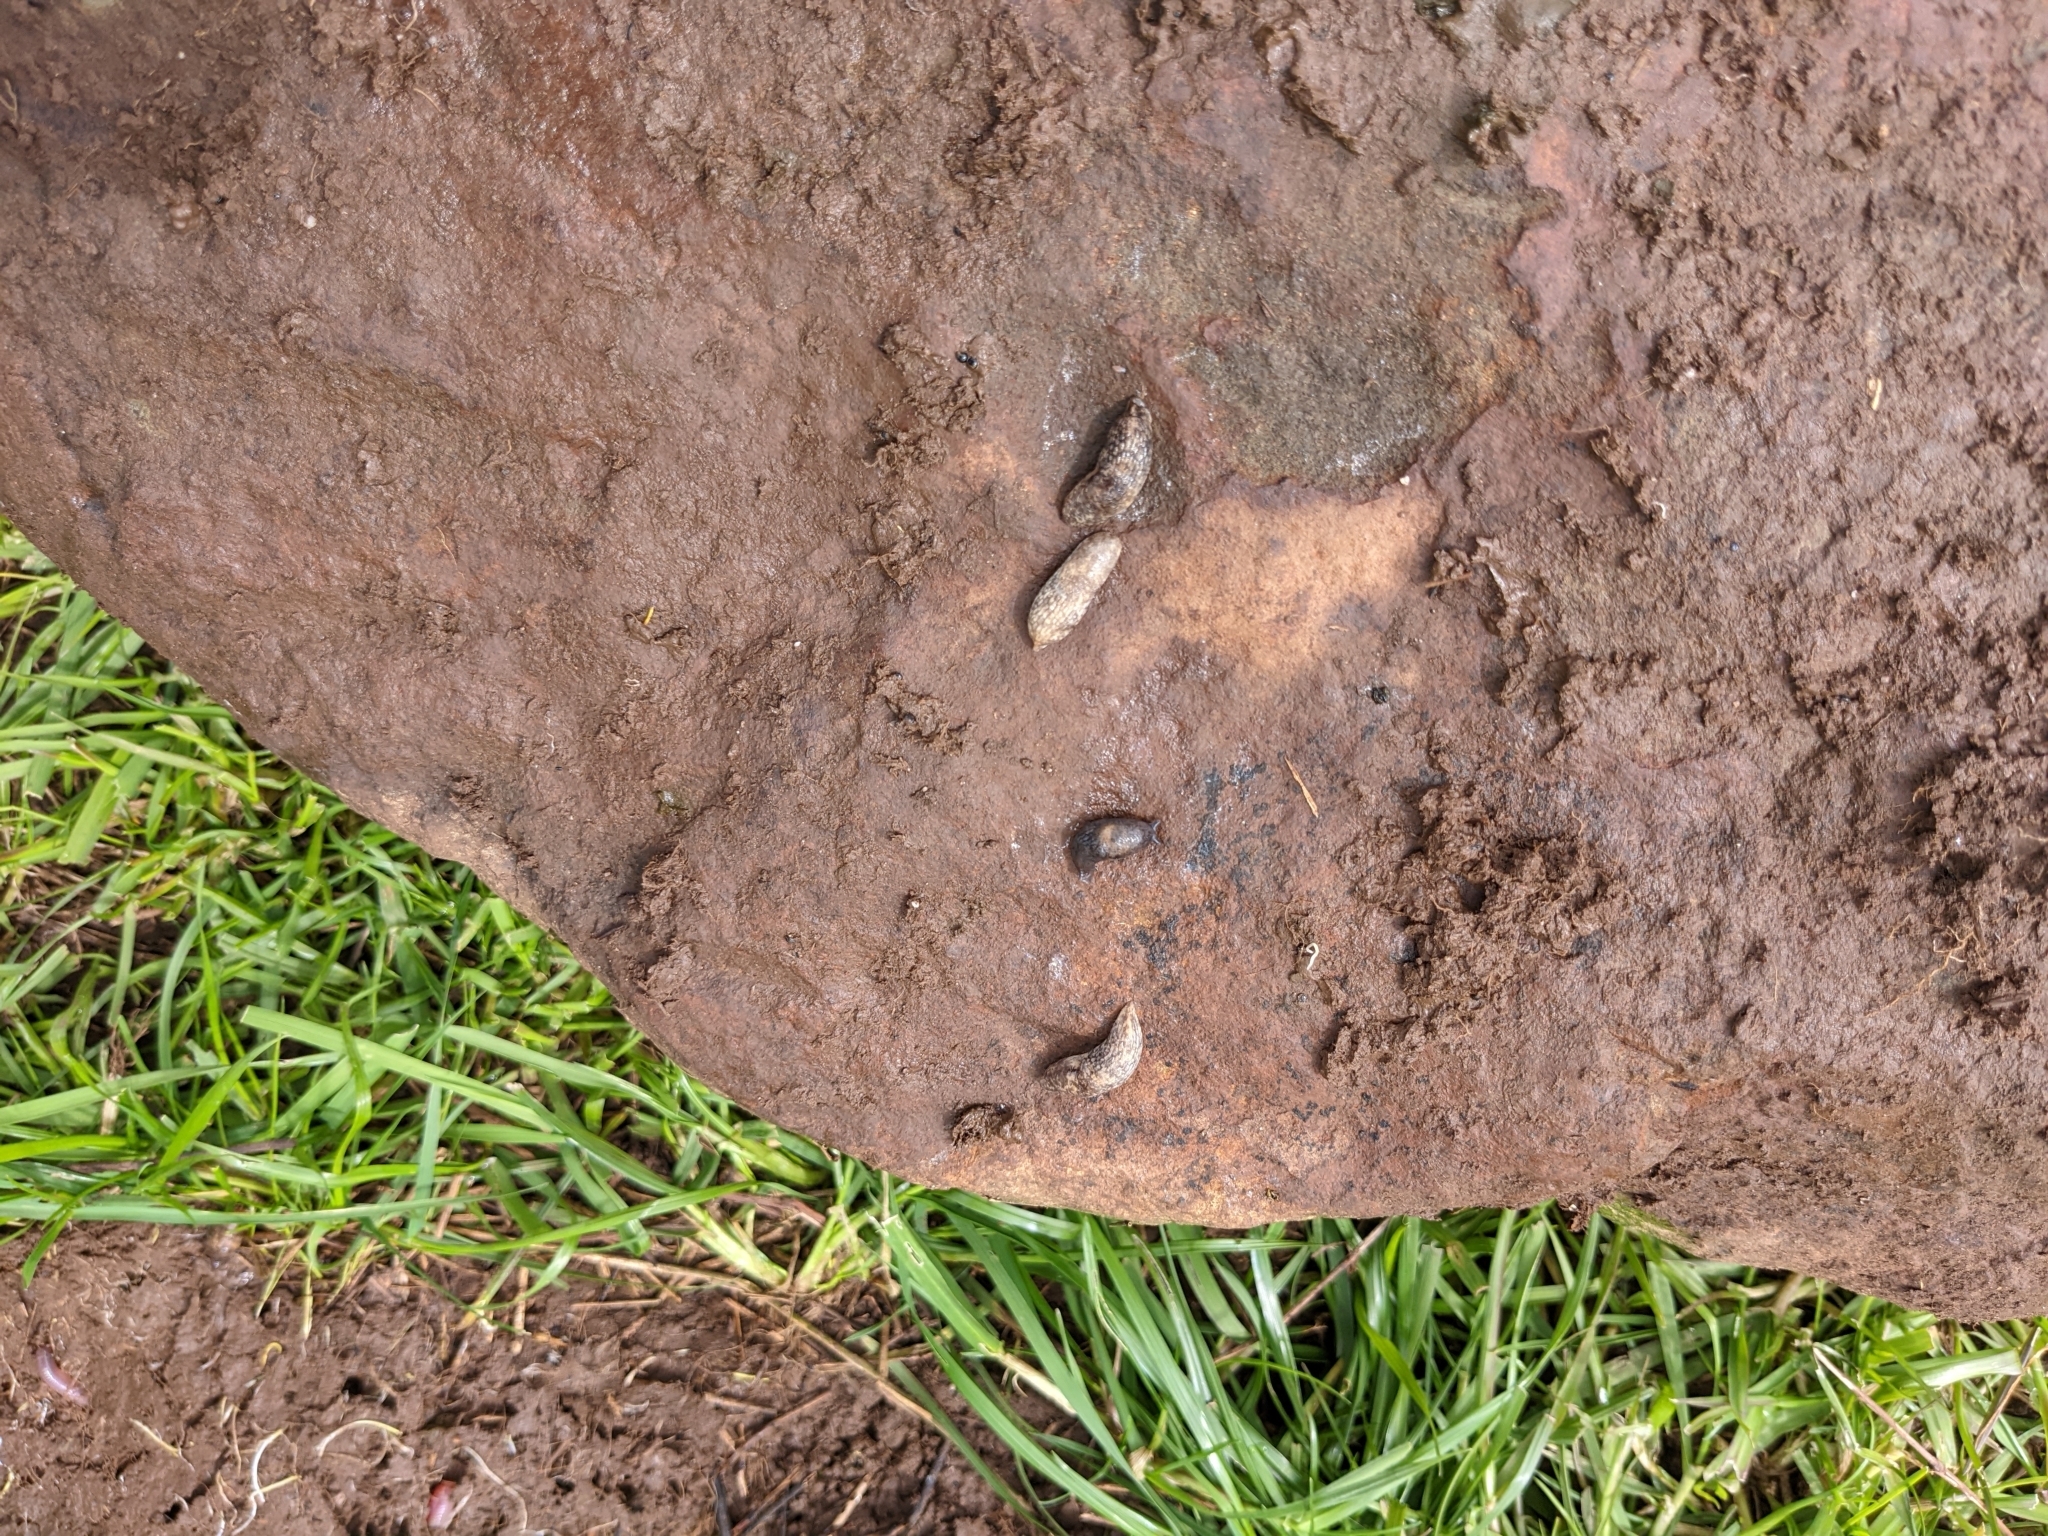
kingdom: Animalia
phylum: Mollusca
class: Gastropoda
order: Stylommatophora
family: Agriolimacidae
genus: Deroceras
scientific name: Deroceras invadens
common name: Caruana's slug
